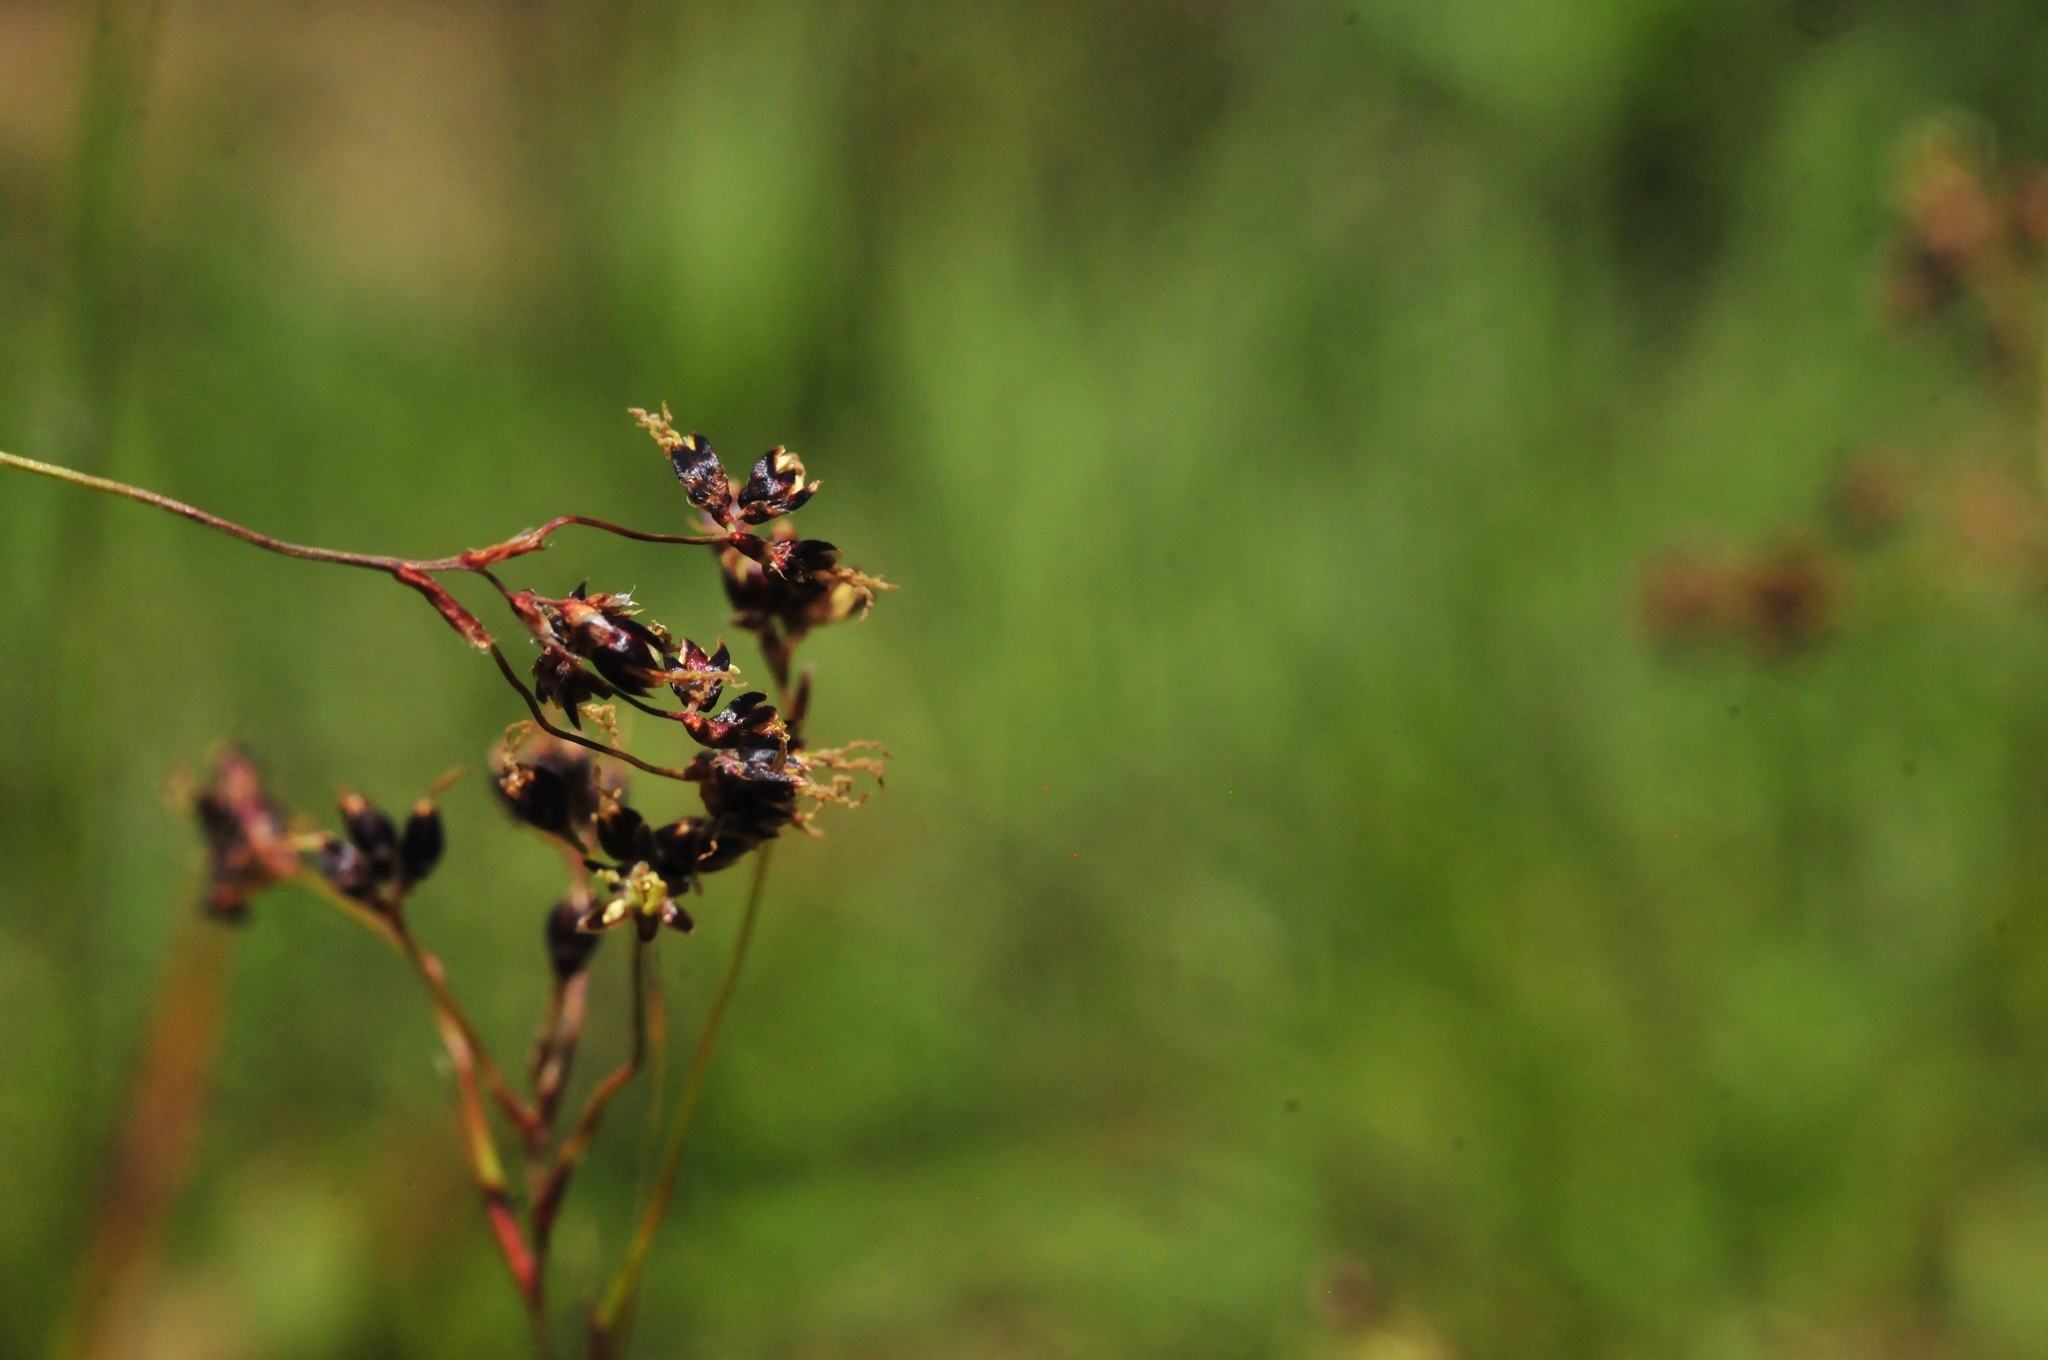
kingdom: Plantae
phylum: Tracheophyta
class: Liliopsida
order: Poales
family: Juncaceae
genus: Luzula
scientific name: Luzula alpinopilosa
